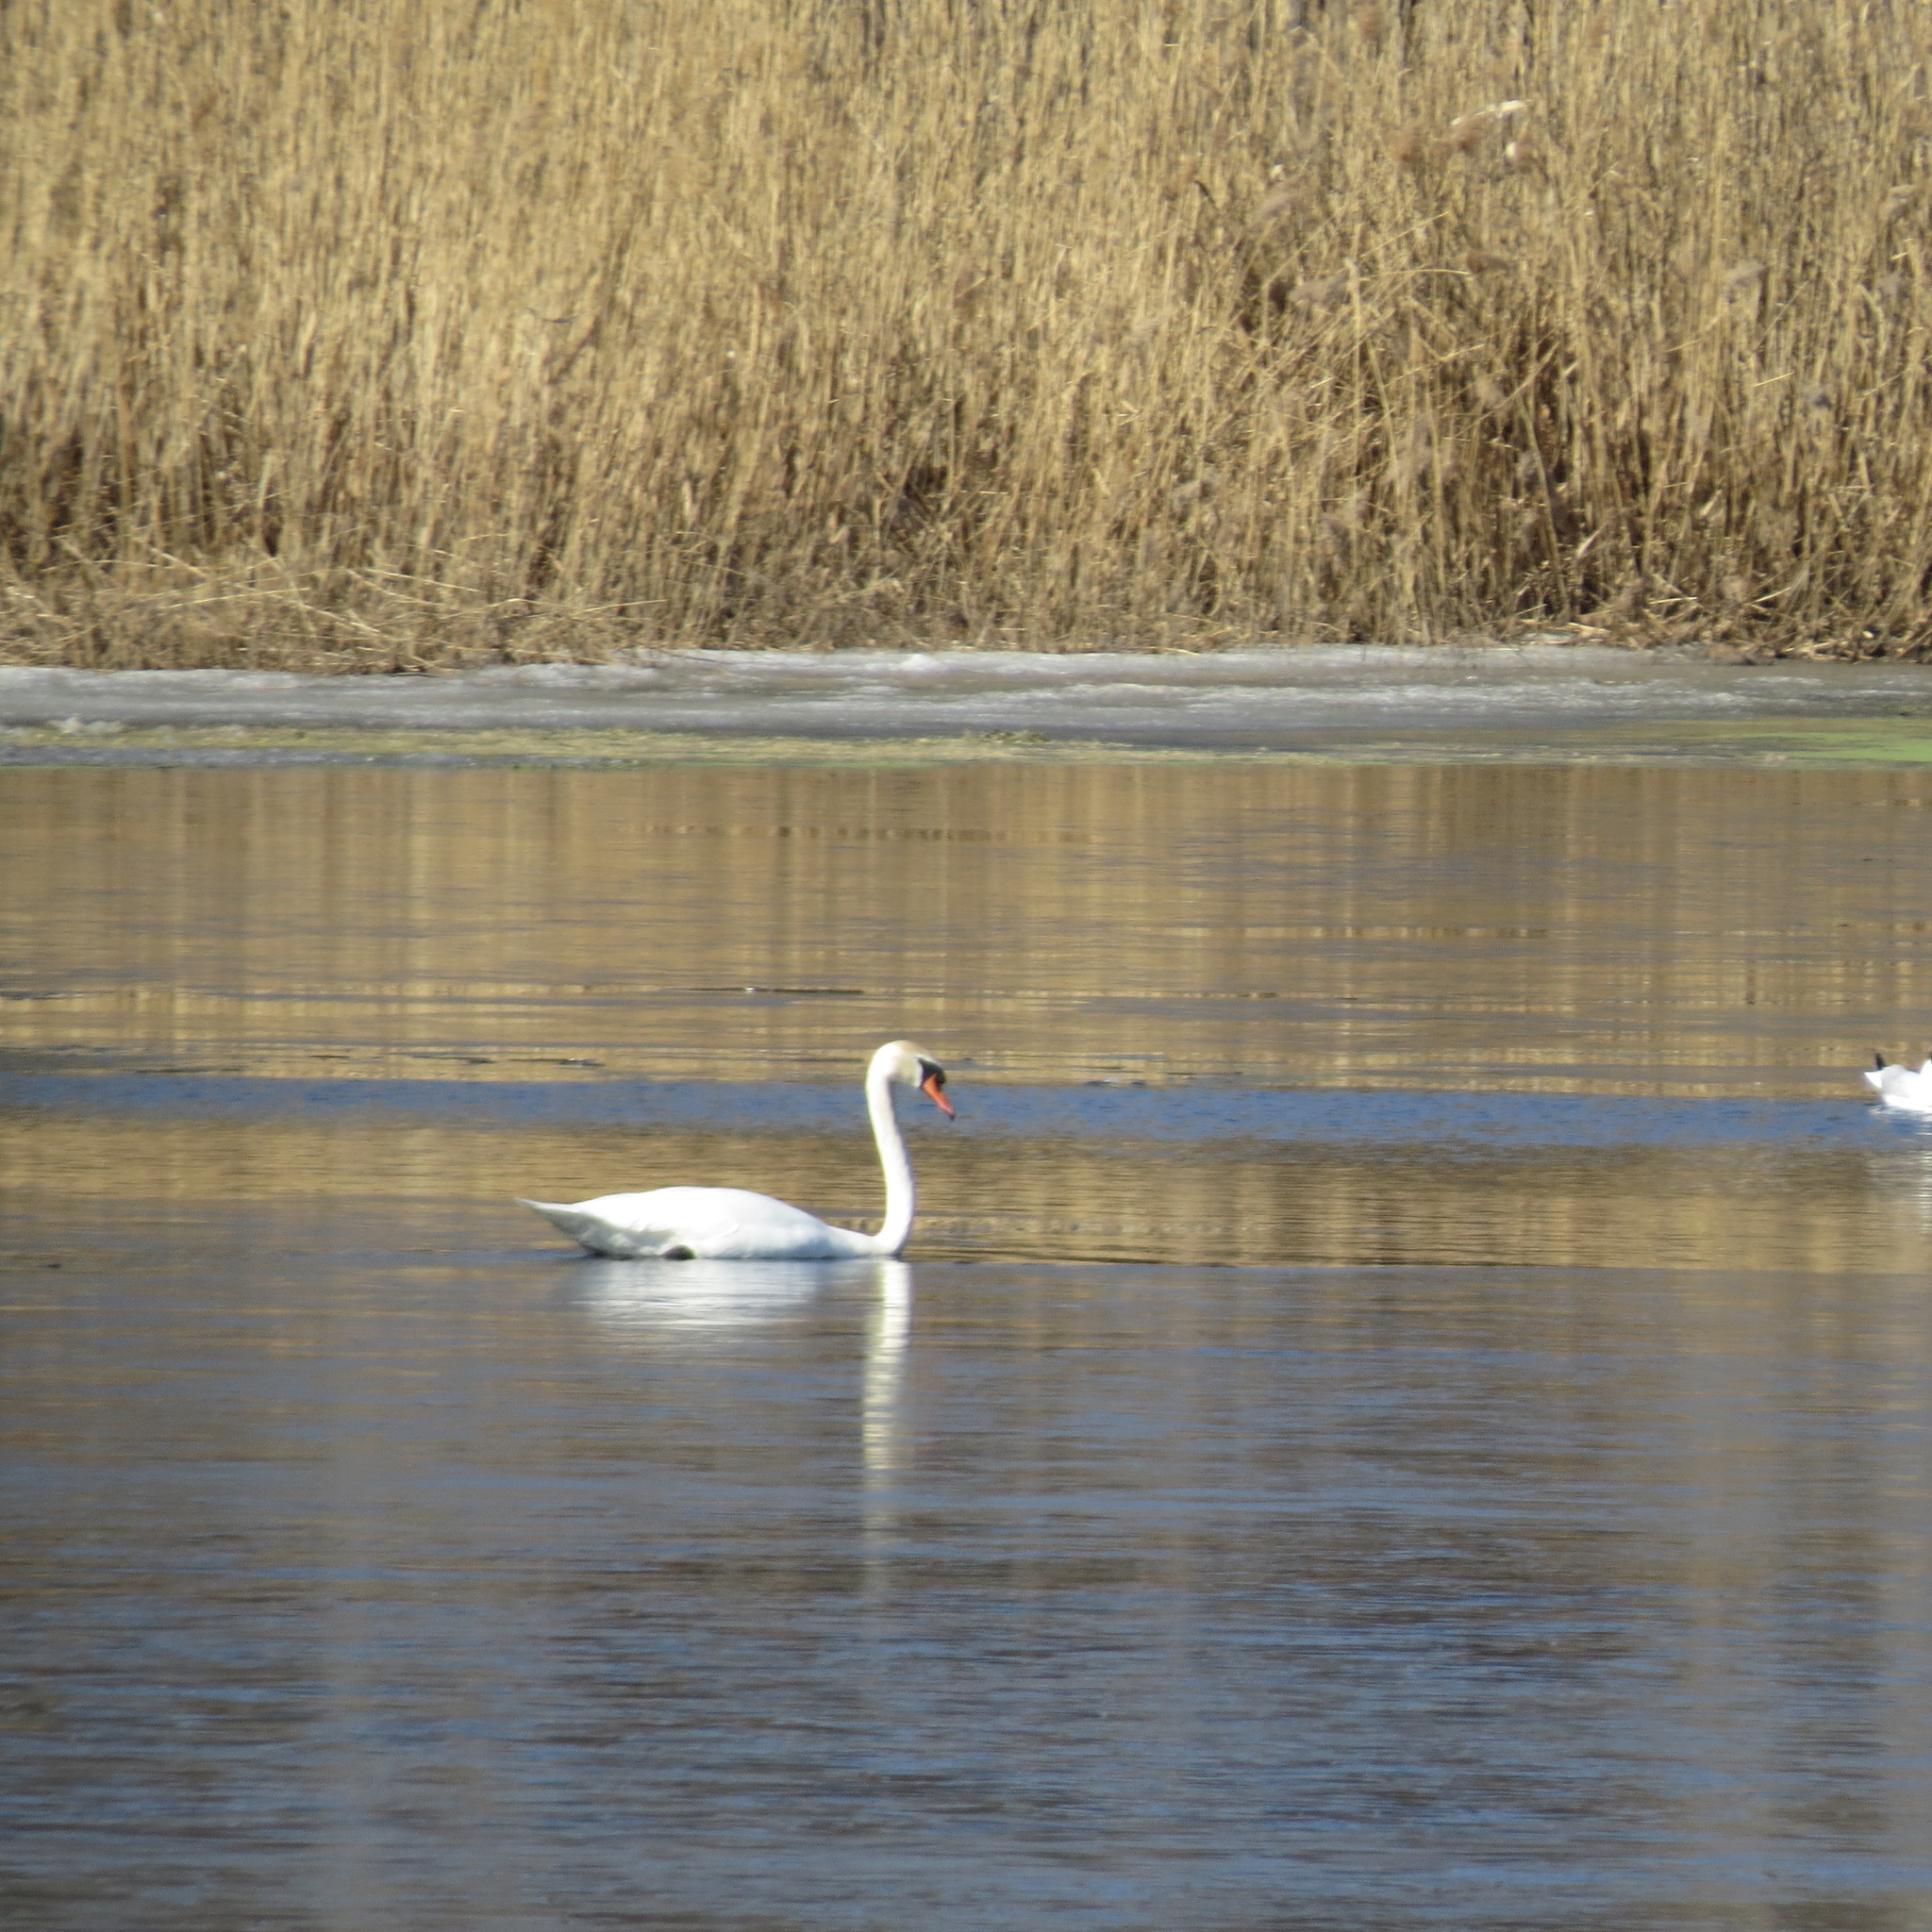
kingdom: Animalia
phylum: Chordata
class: Aves
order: Anseriformes
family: Anatidae
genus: Cygnus
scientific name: Cygnus olor
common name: Mute swan
